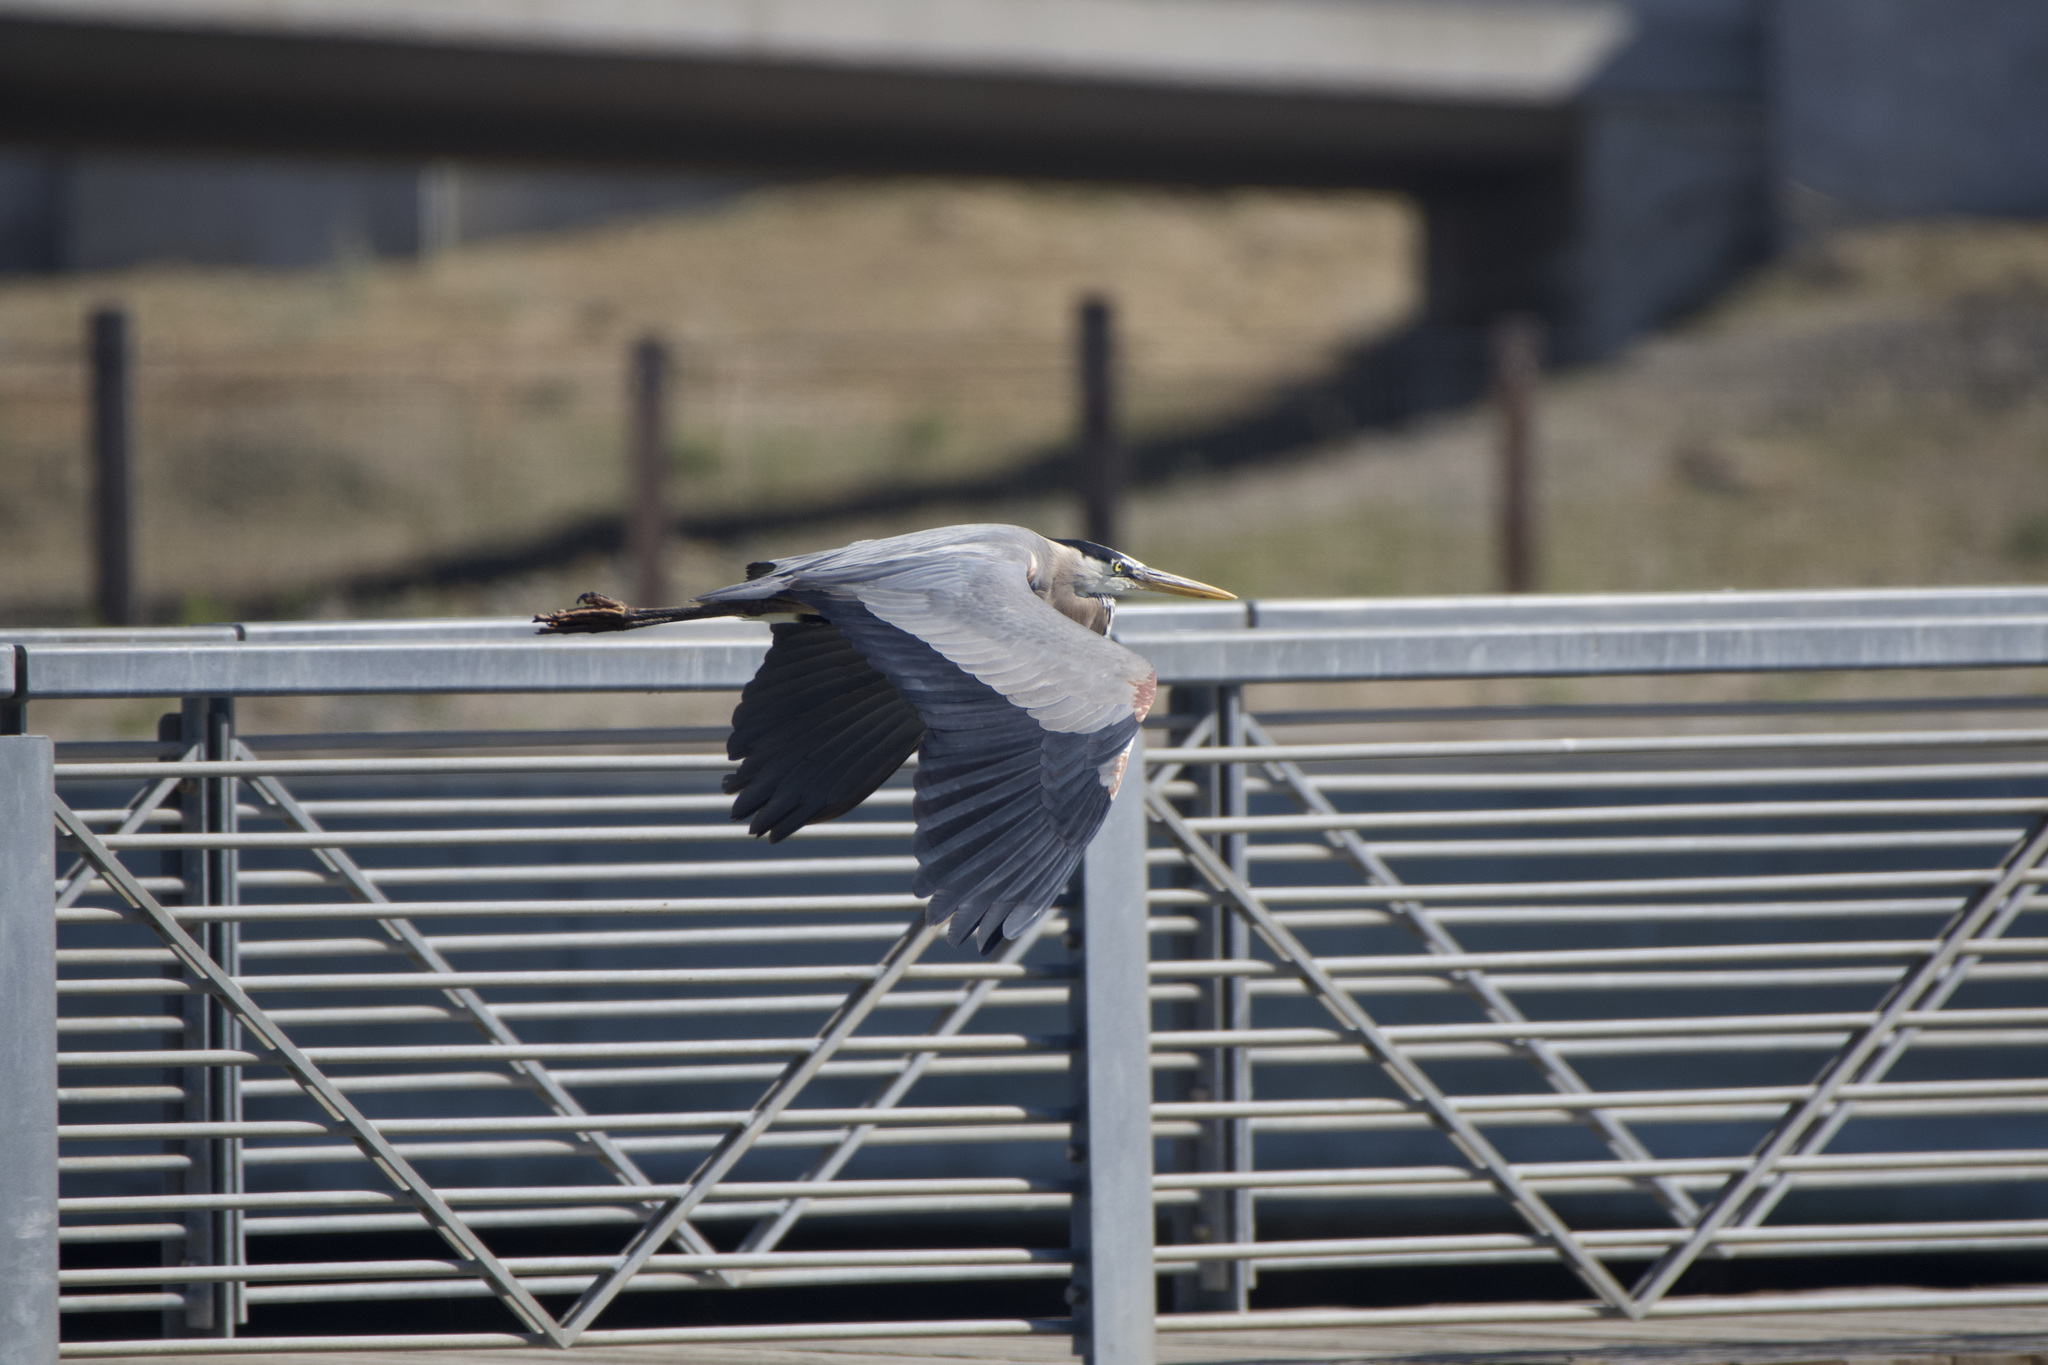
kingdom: Animalia
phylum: Chordata
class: Aves
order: Pelecaniformes
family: Ardeidae
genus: Ardea
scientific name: Ardea herodias
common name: Great blue heron
